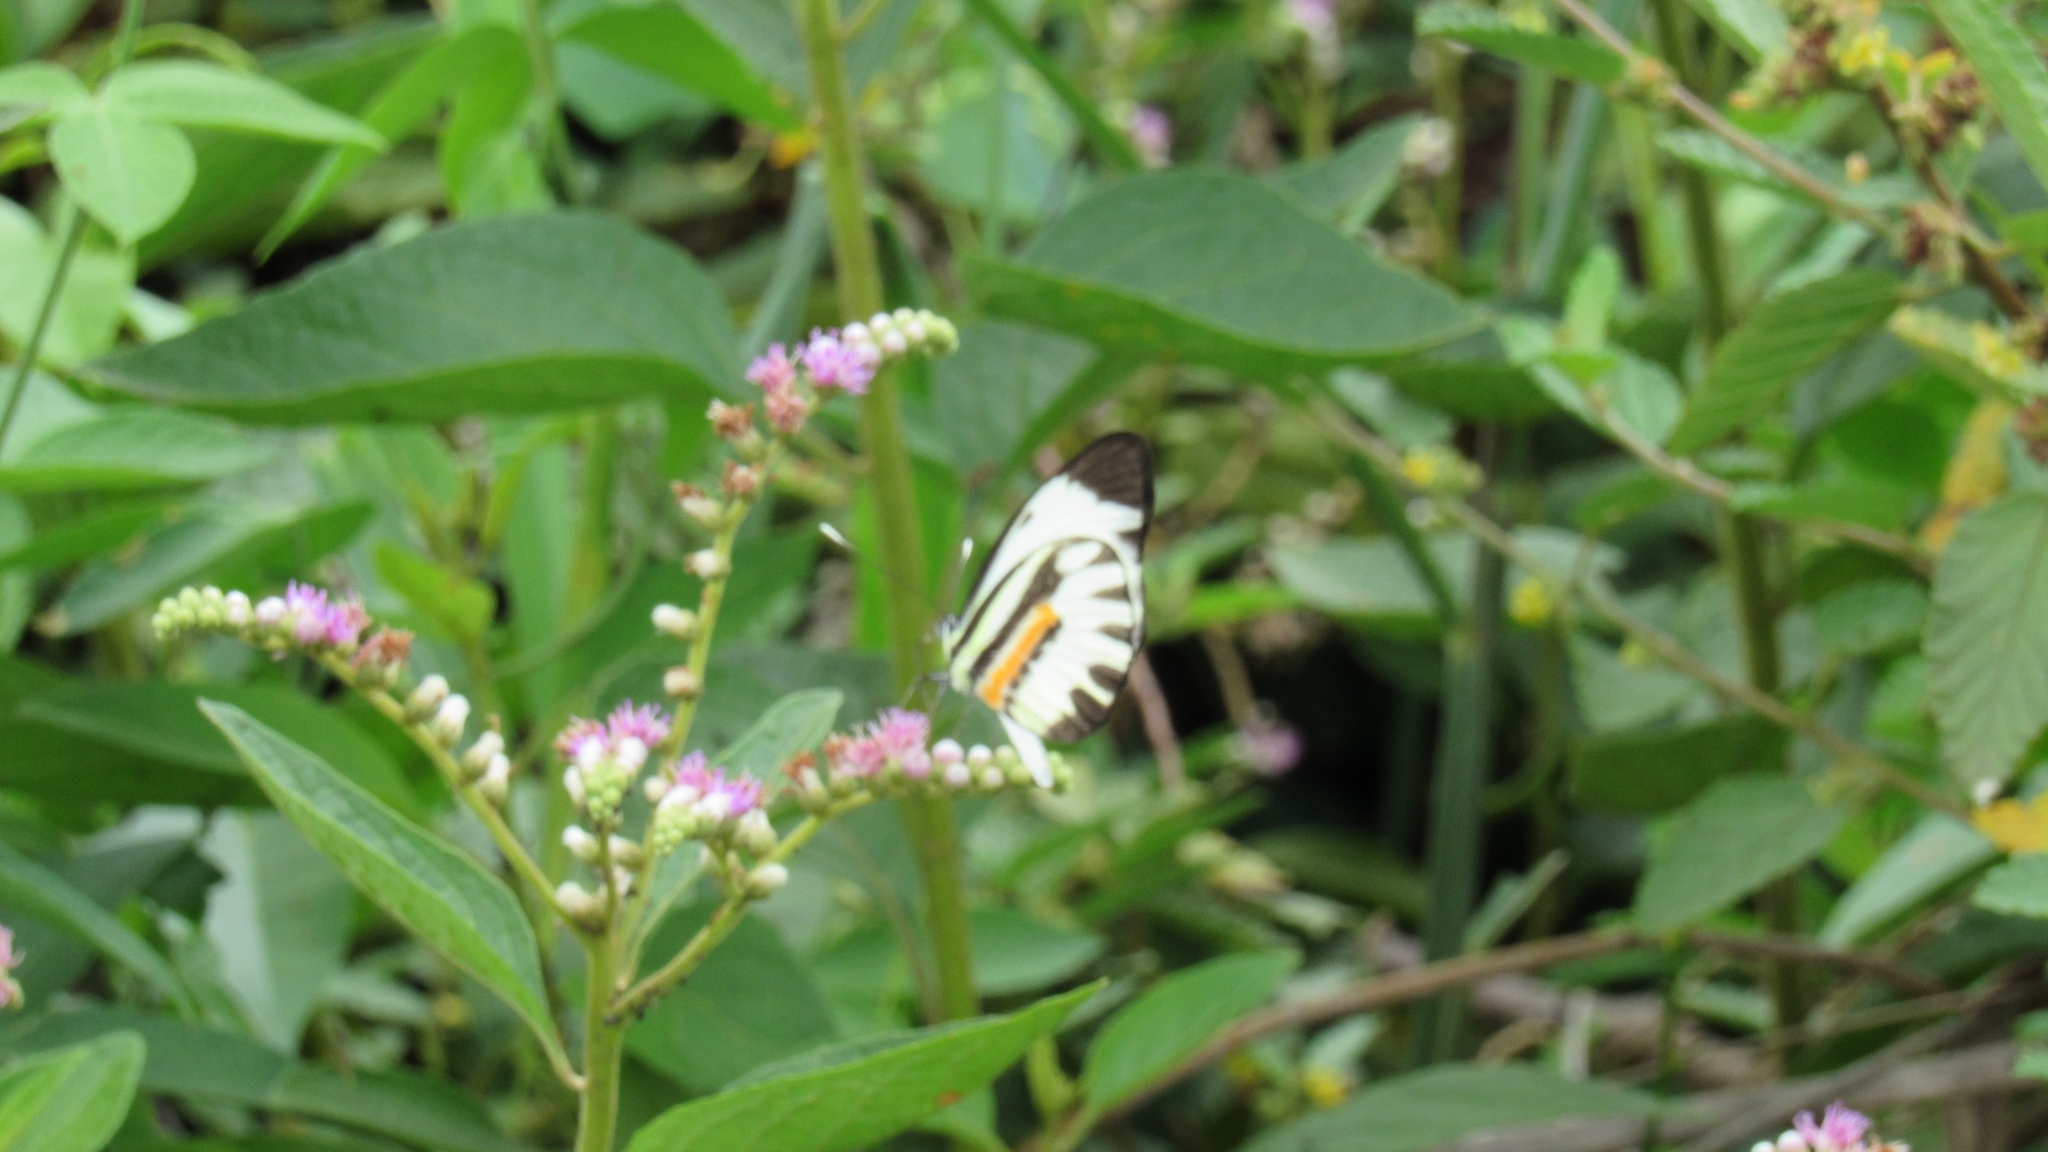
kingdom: Animalia
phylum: Arthropoda
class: Insecta
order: Lepidoptera
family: Pieridae
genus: Perrhybris
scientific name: Perrhybris pamela
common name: Chiapas white
